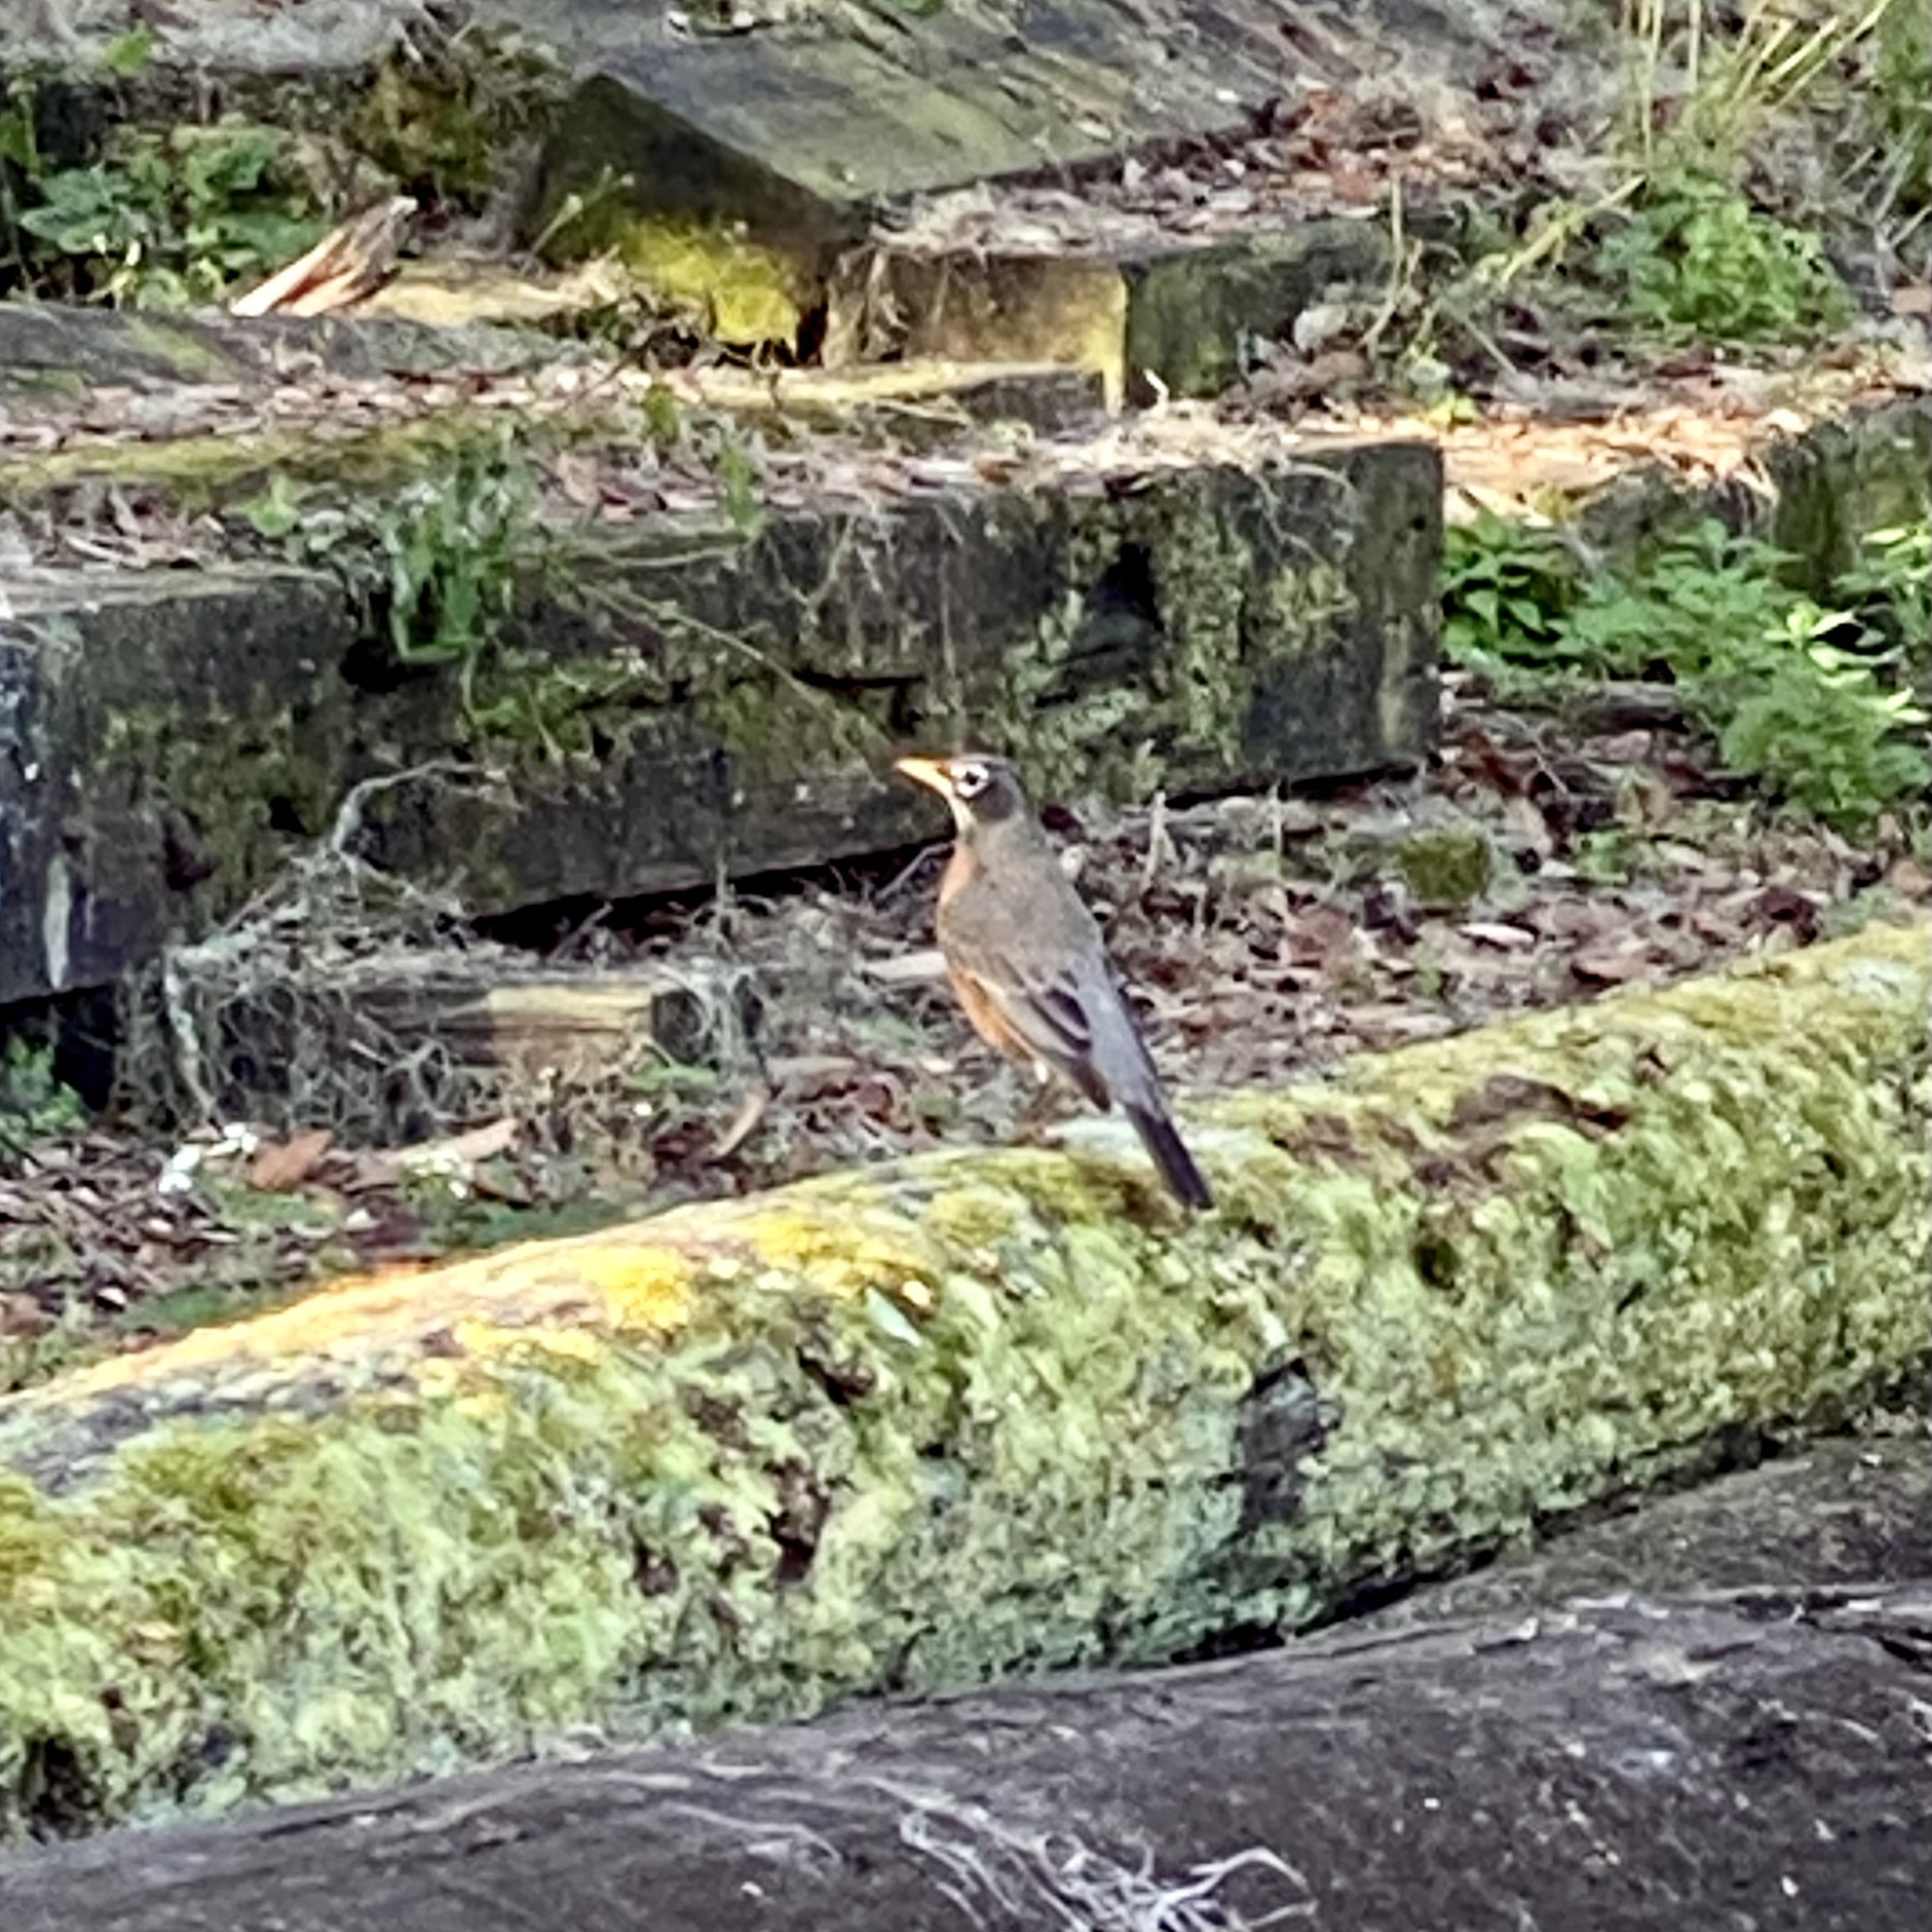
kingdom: Animalia
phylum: Chordata
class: Aves
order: Passeriformes
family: Turdidae
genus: Turdus
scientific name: Turdus migratorius
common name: American robin
